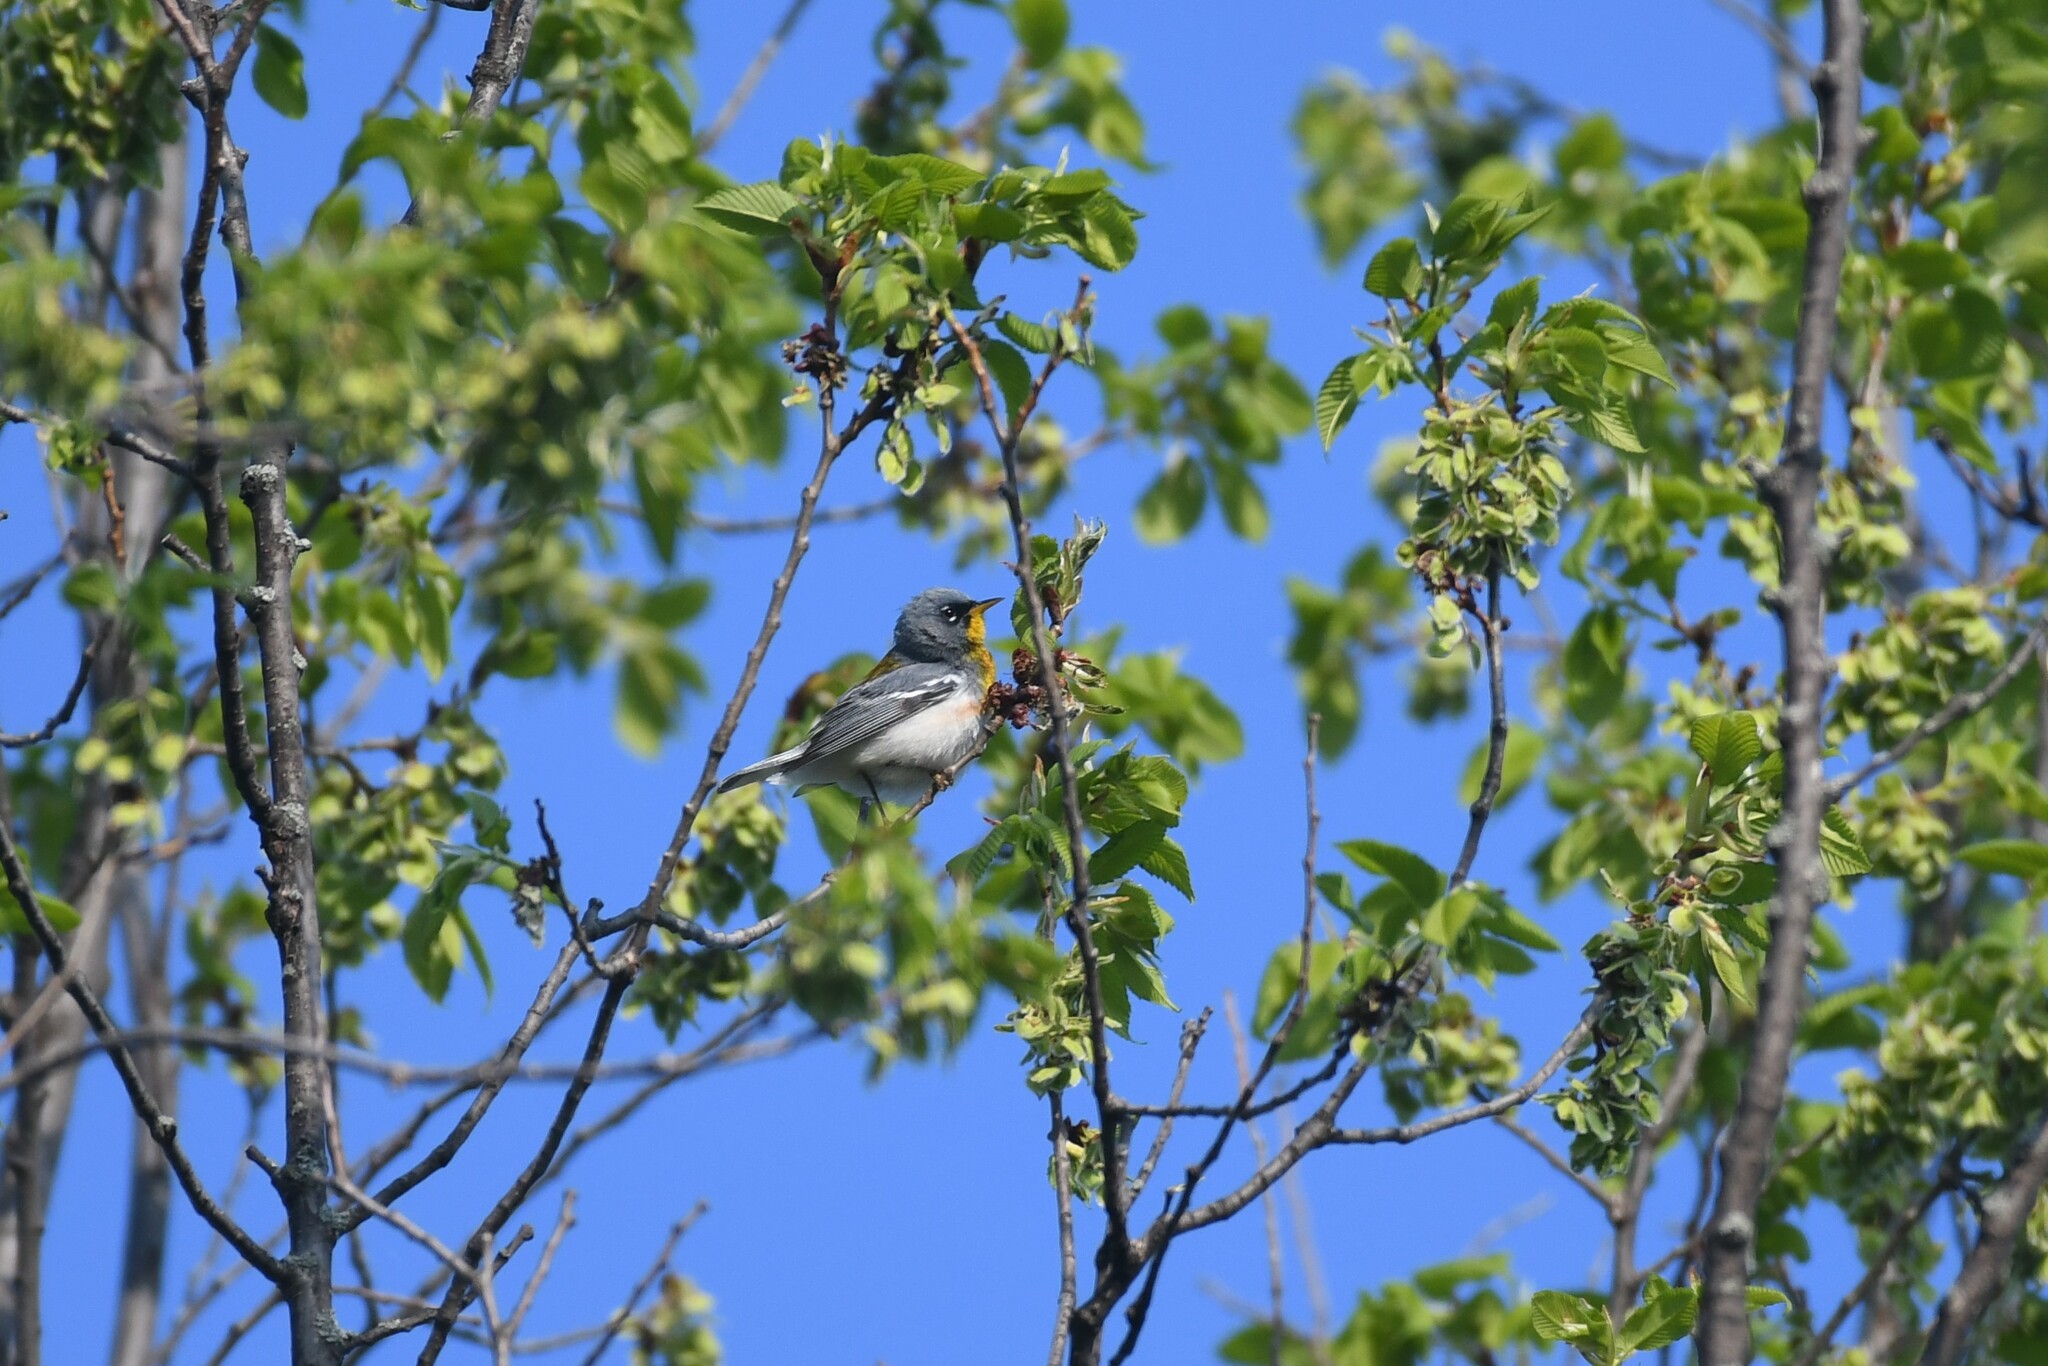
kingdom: Animalia
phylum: Chordata
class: Aves
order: Passeriformes
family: Parulidae
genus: Setophaga
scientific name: Setophaga americana
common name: Northern parula
